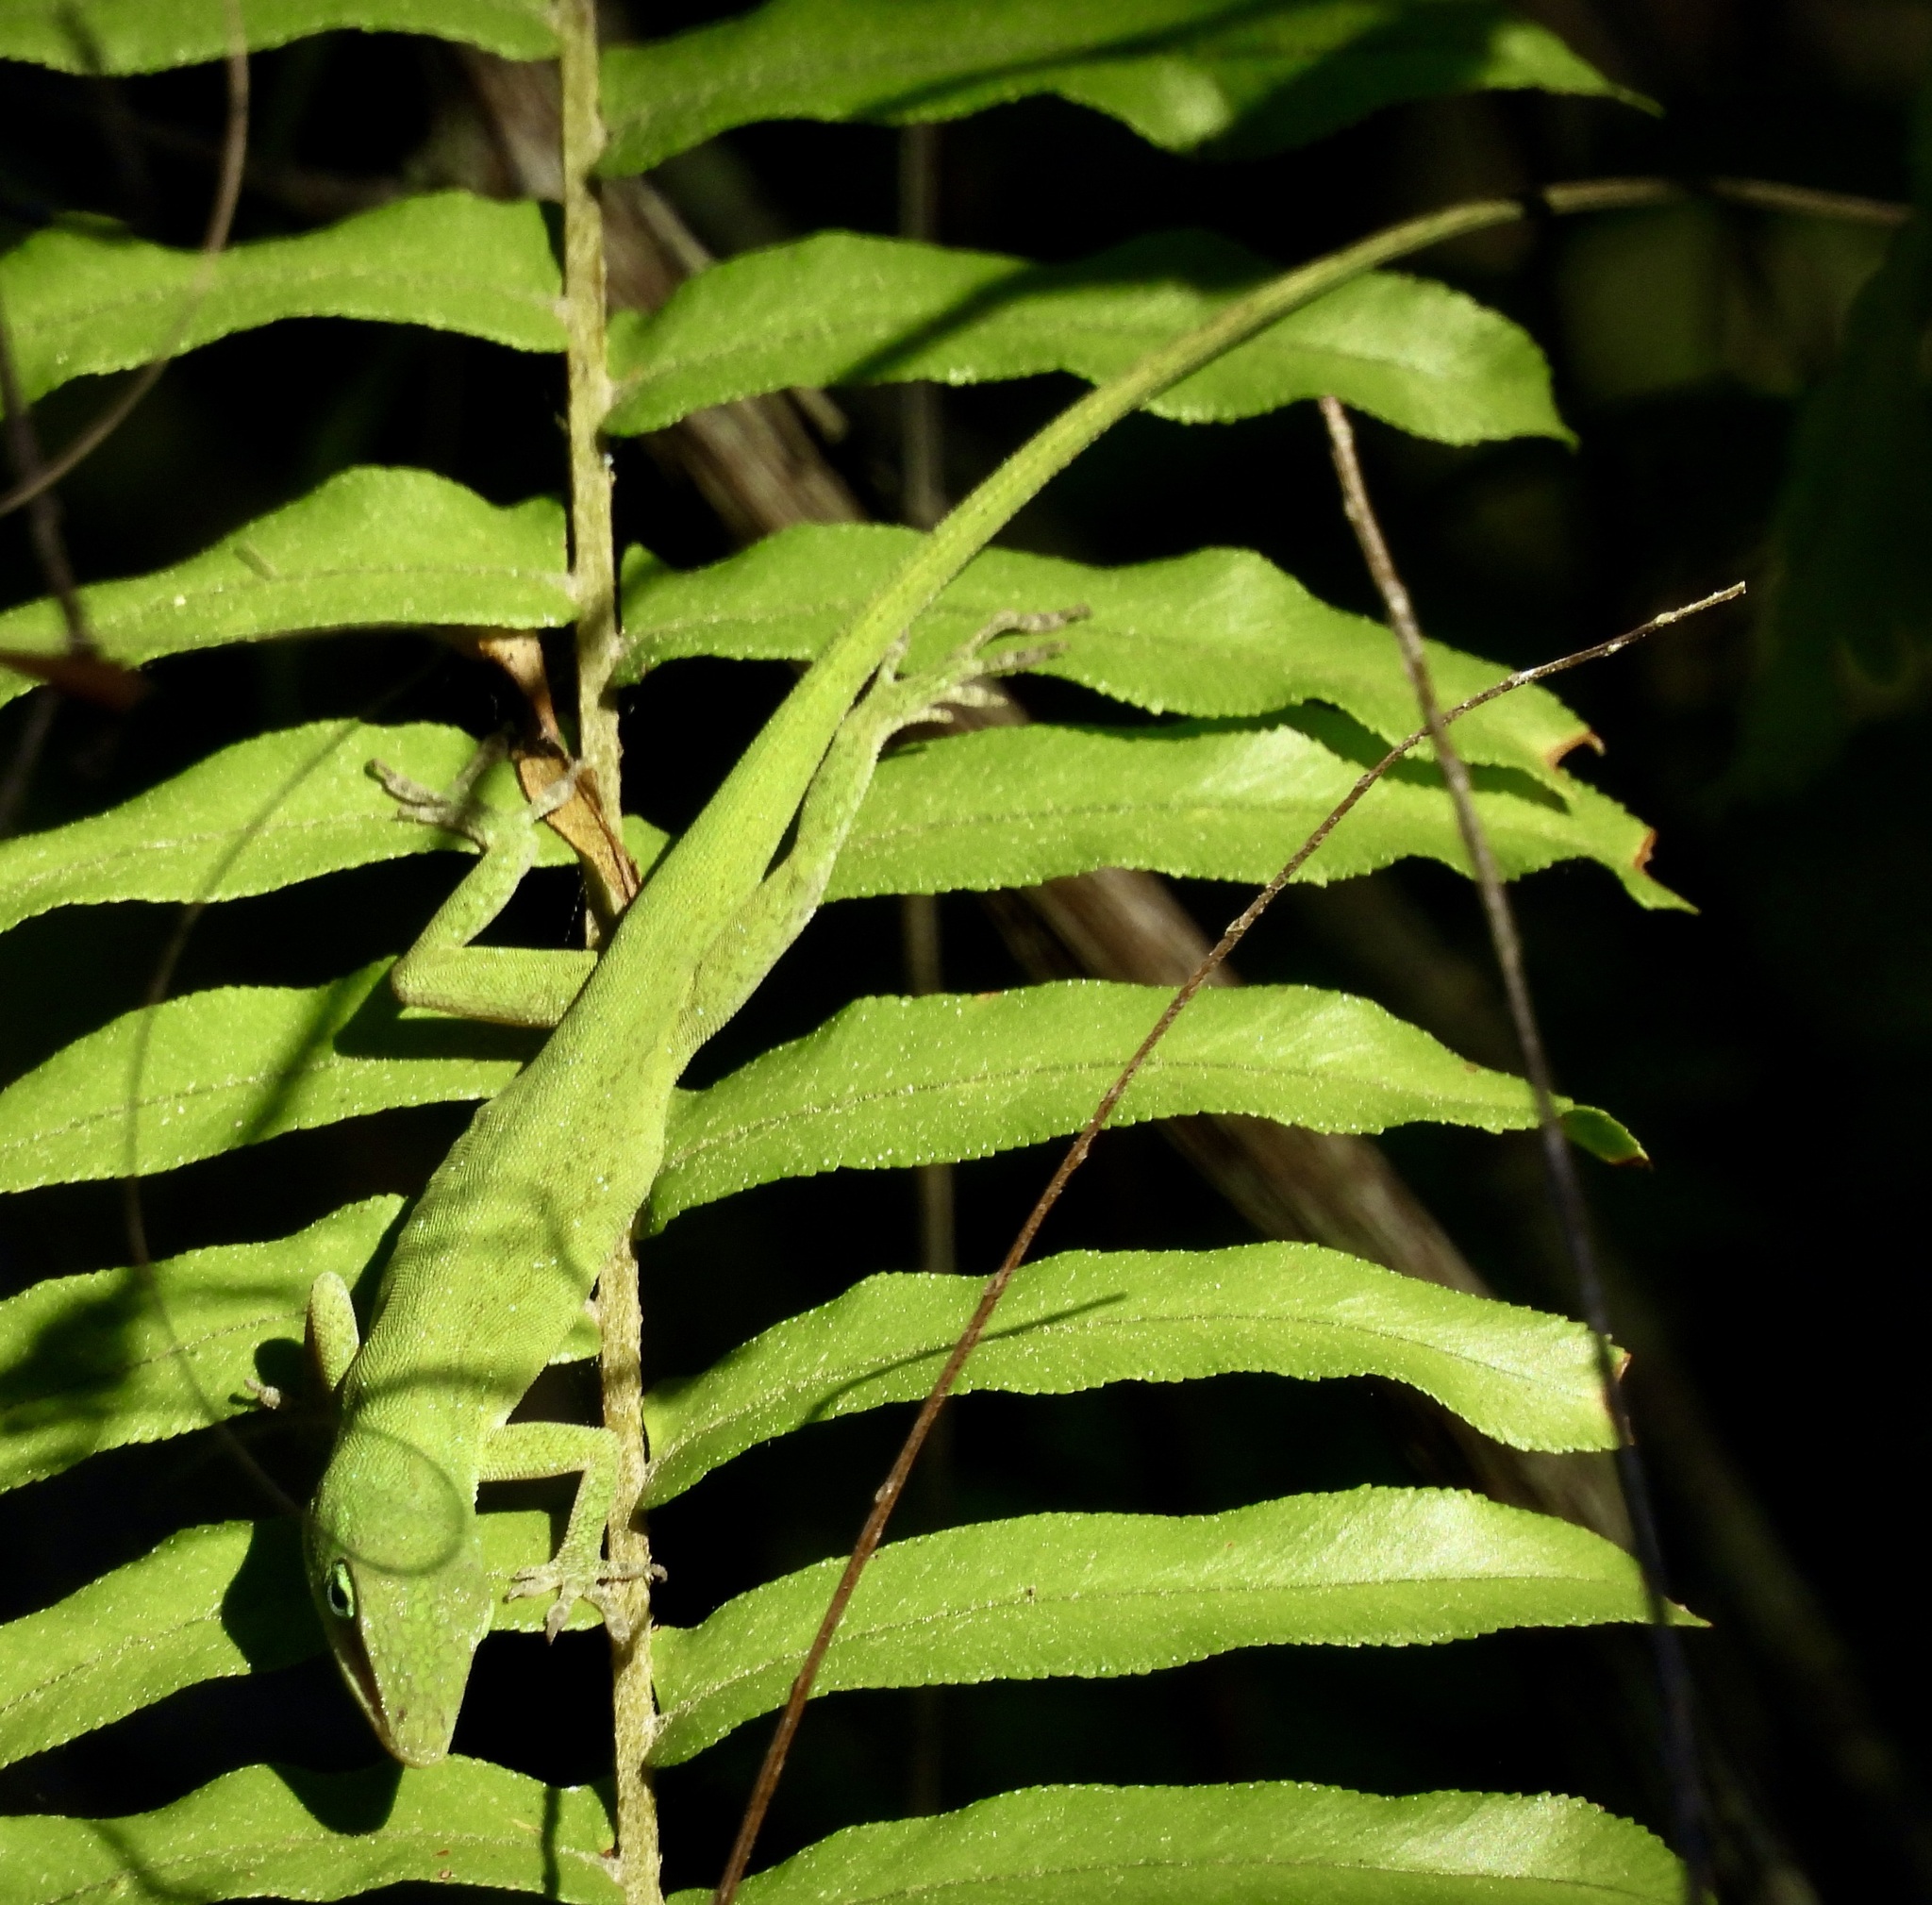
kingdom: Animalia
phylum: Chordata
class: Squamata
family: Dactyloidae
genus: Anolis
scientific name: Anolis carolinensis
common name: Green anole
